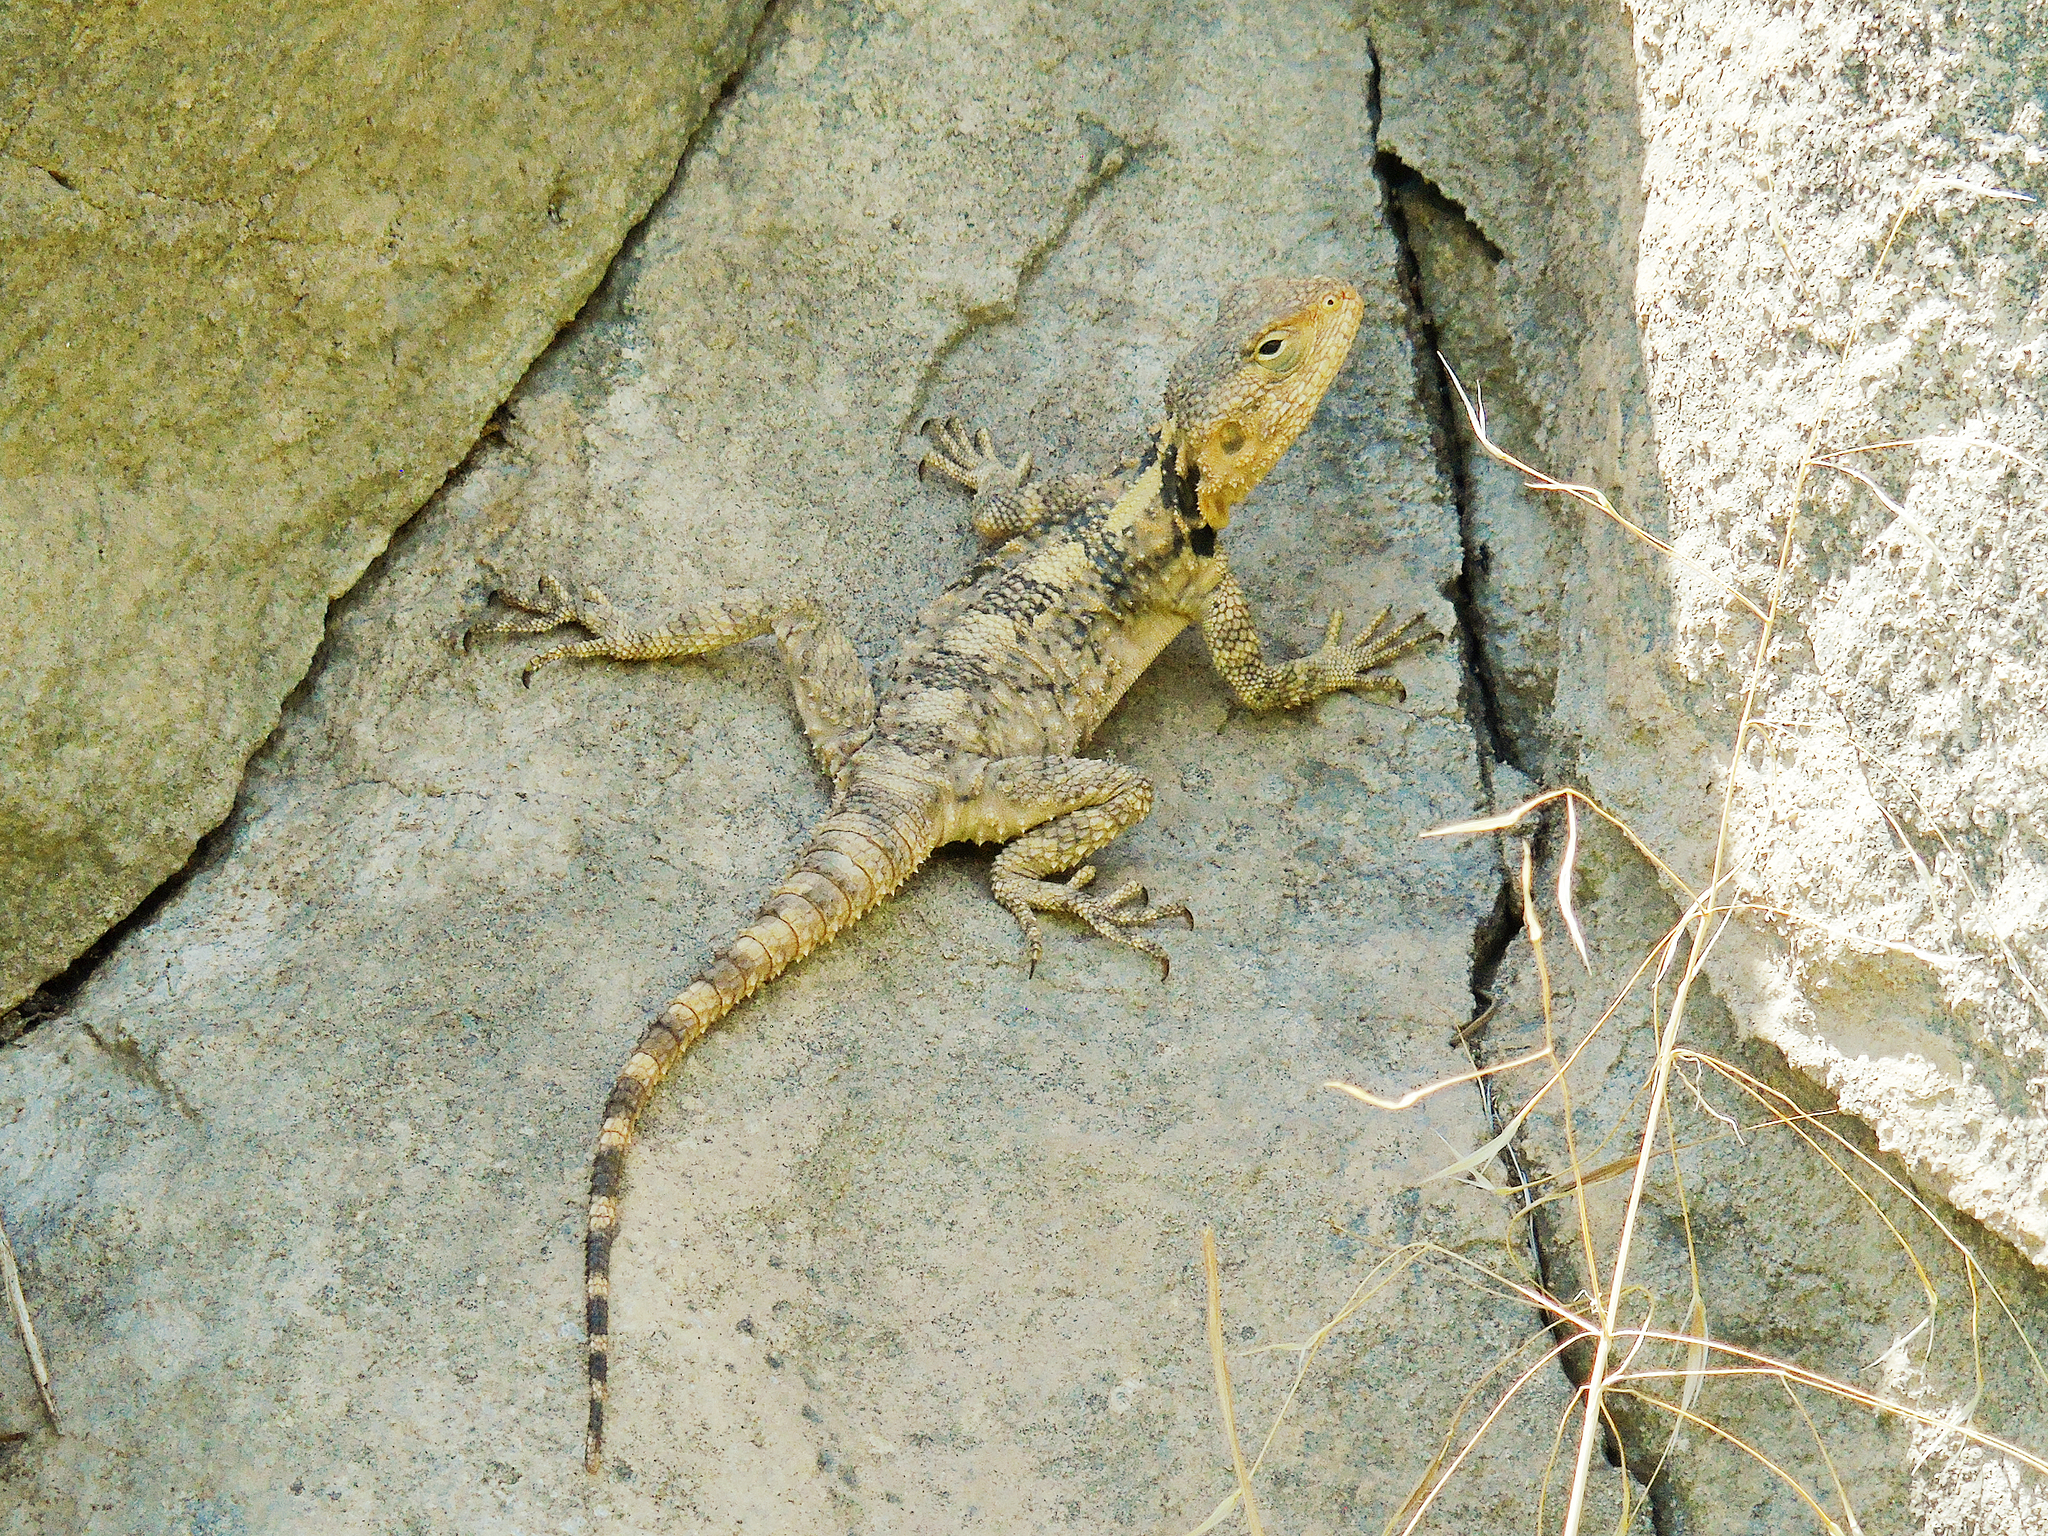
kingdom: Animalia
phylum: Chordata
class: Squamata
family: Agamidae
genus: Stellagama
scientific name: Stellagama stellio
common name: Starred agama
